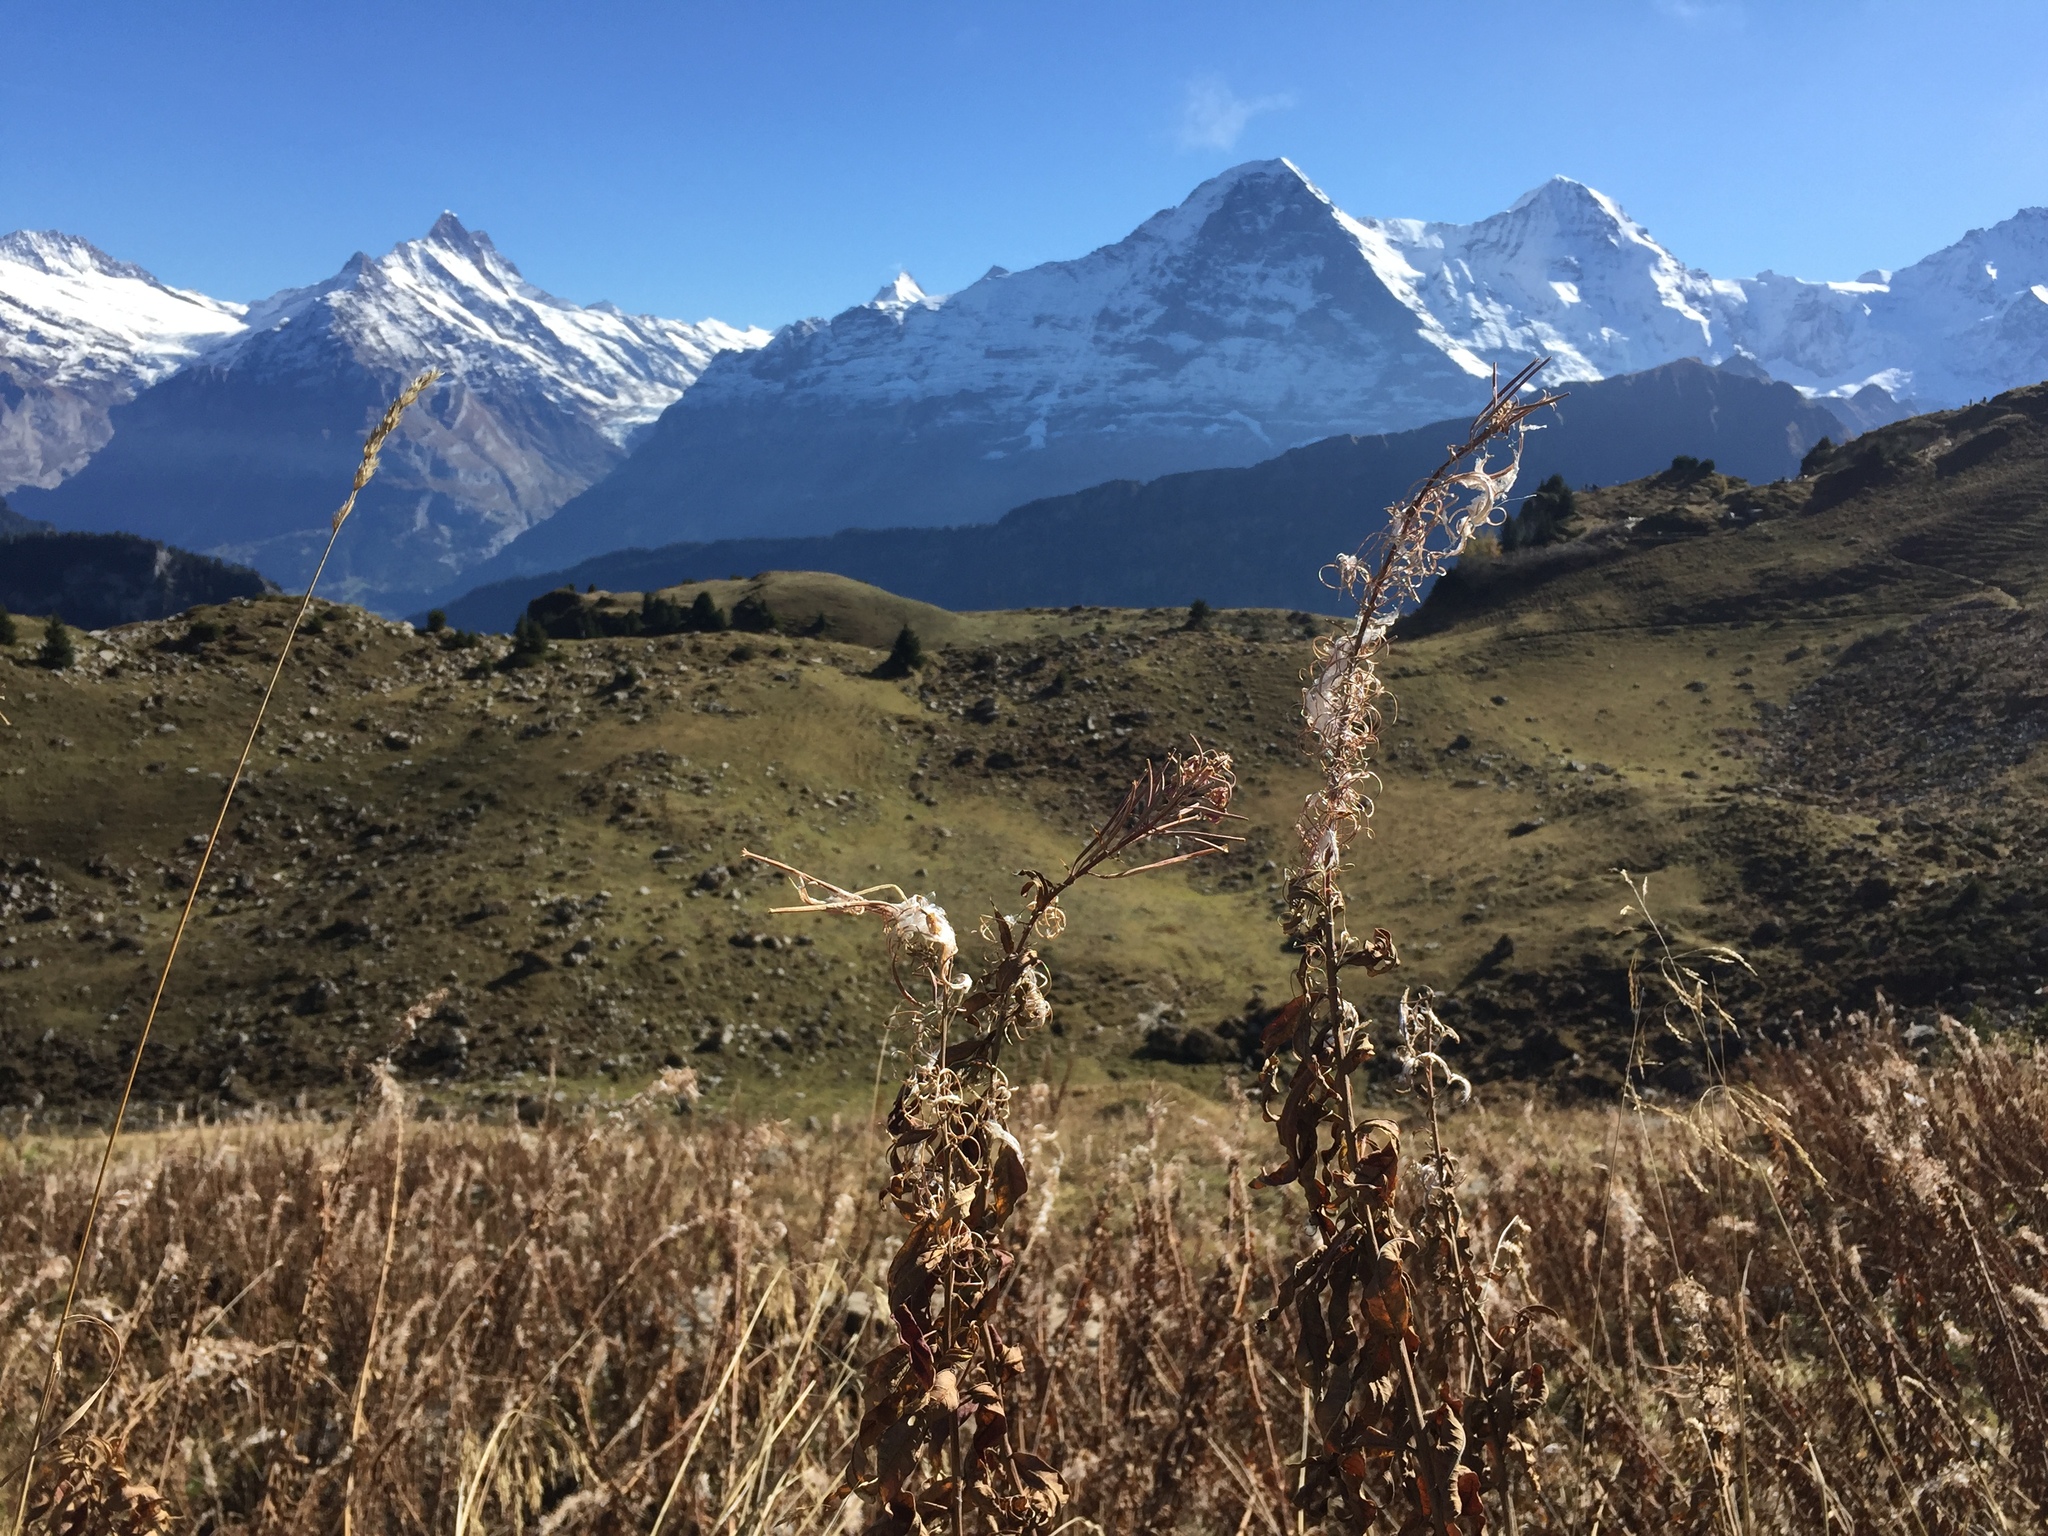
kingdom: Plantae
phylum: Tracheophyta
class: Magnoliopsida
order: Myrtales
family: Onagraceae
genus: Chamaenerion
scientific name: Chamaenerion angustifolium
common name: Fireweed
